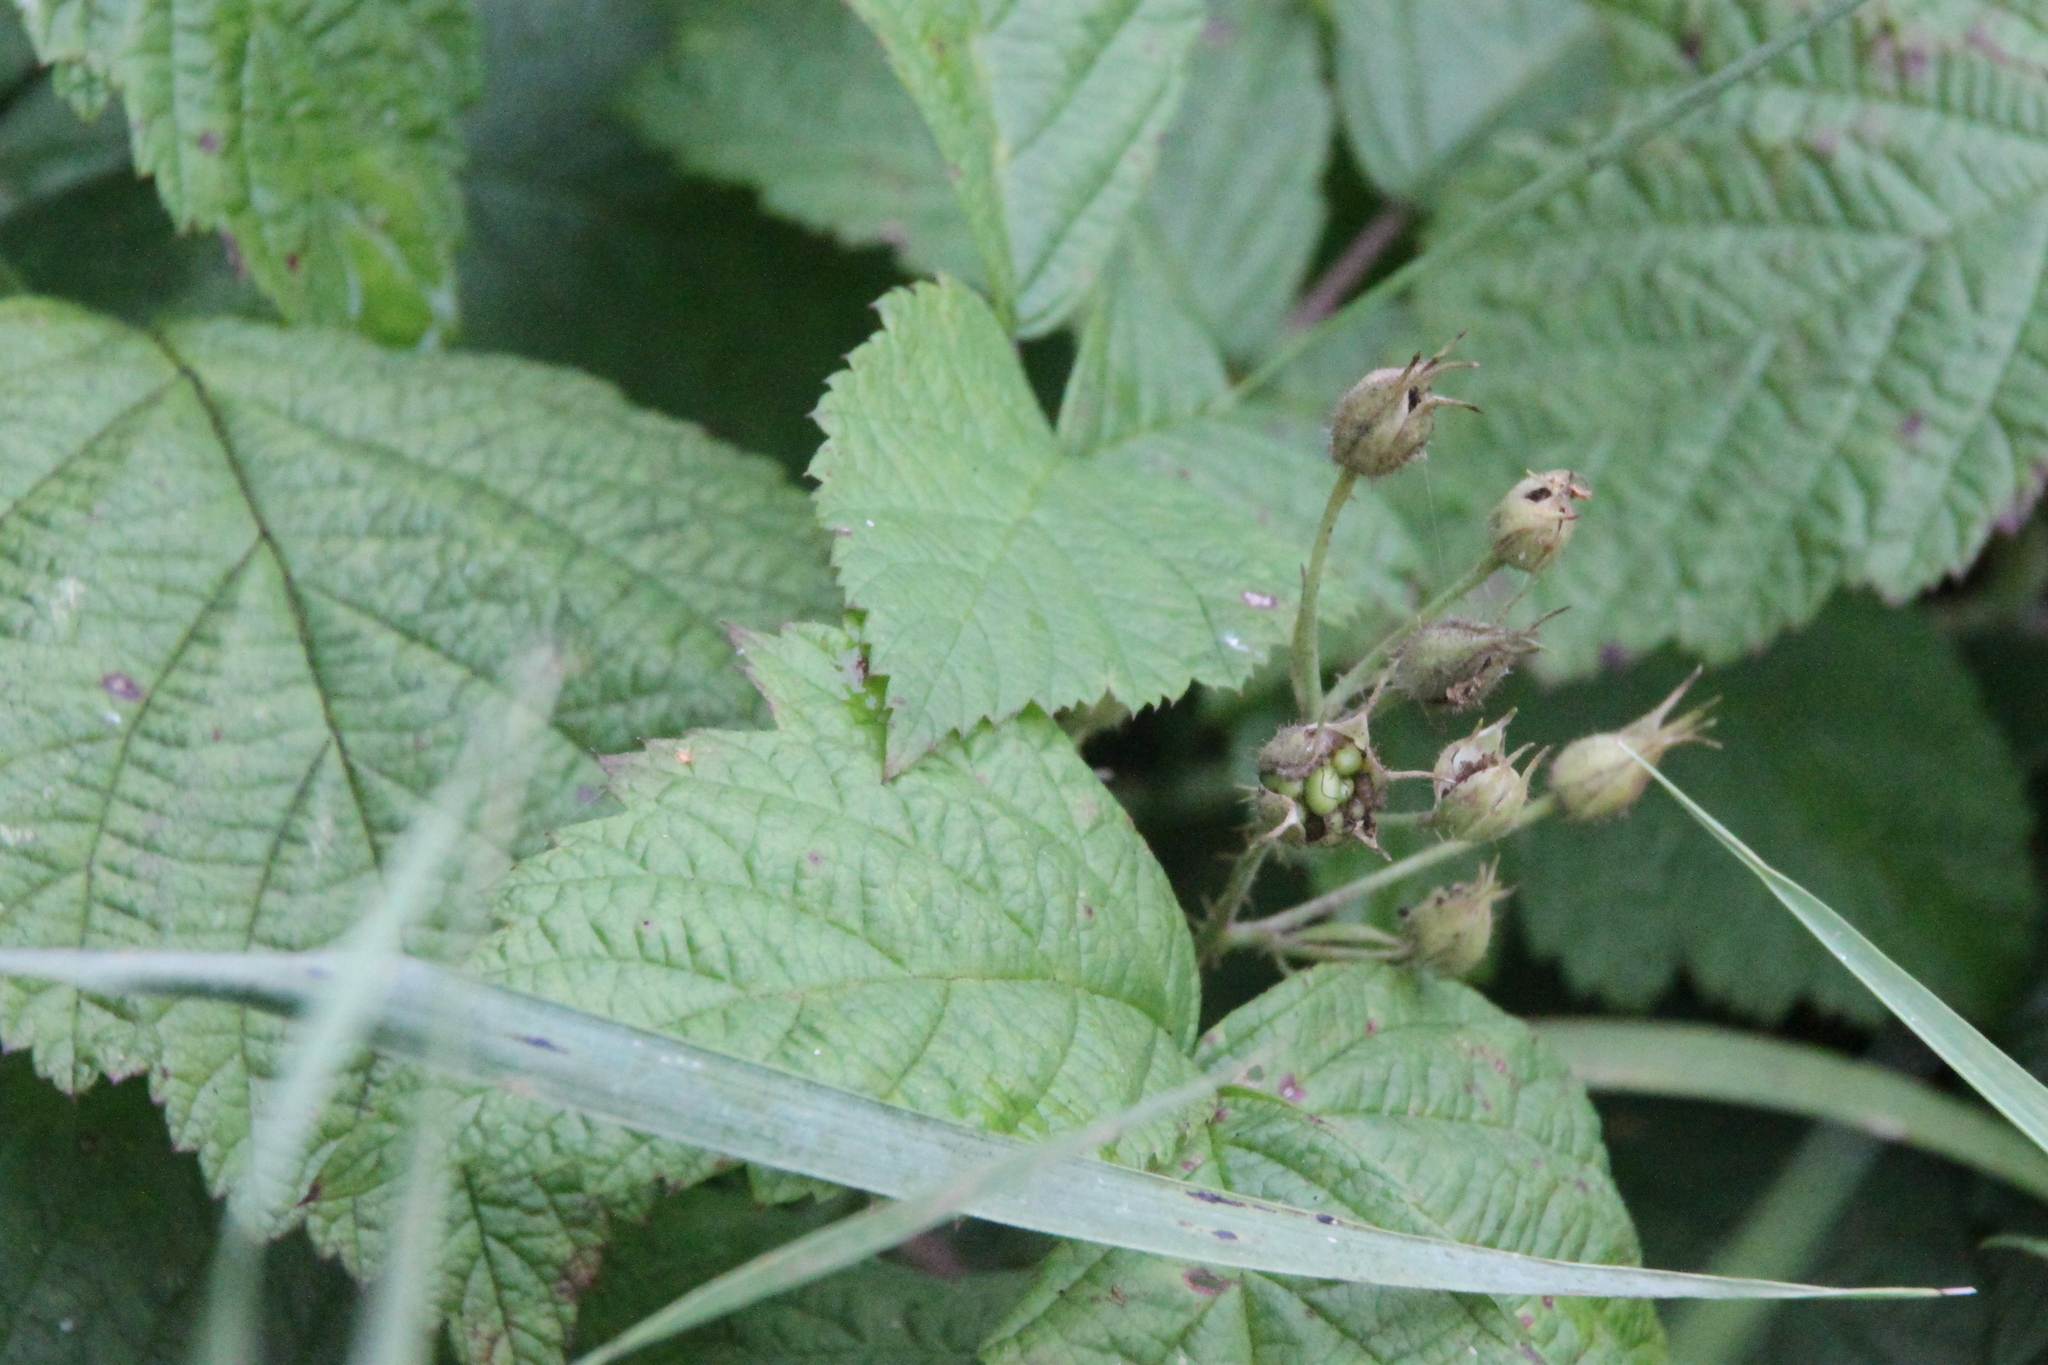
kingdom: Plantae
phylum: Tracheophyta
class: Magnoliopsida
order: Rosales
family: Rosaceae
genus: Rubus
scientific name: Rubus caesius
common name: Dewberry
